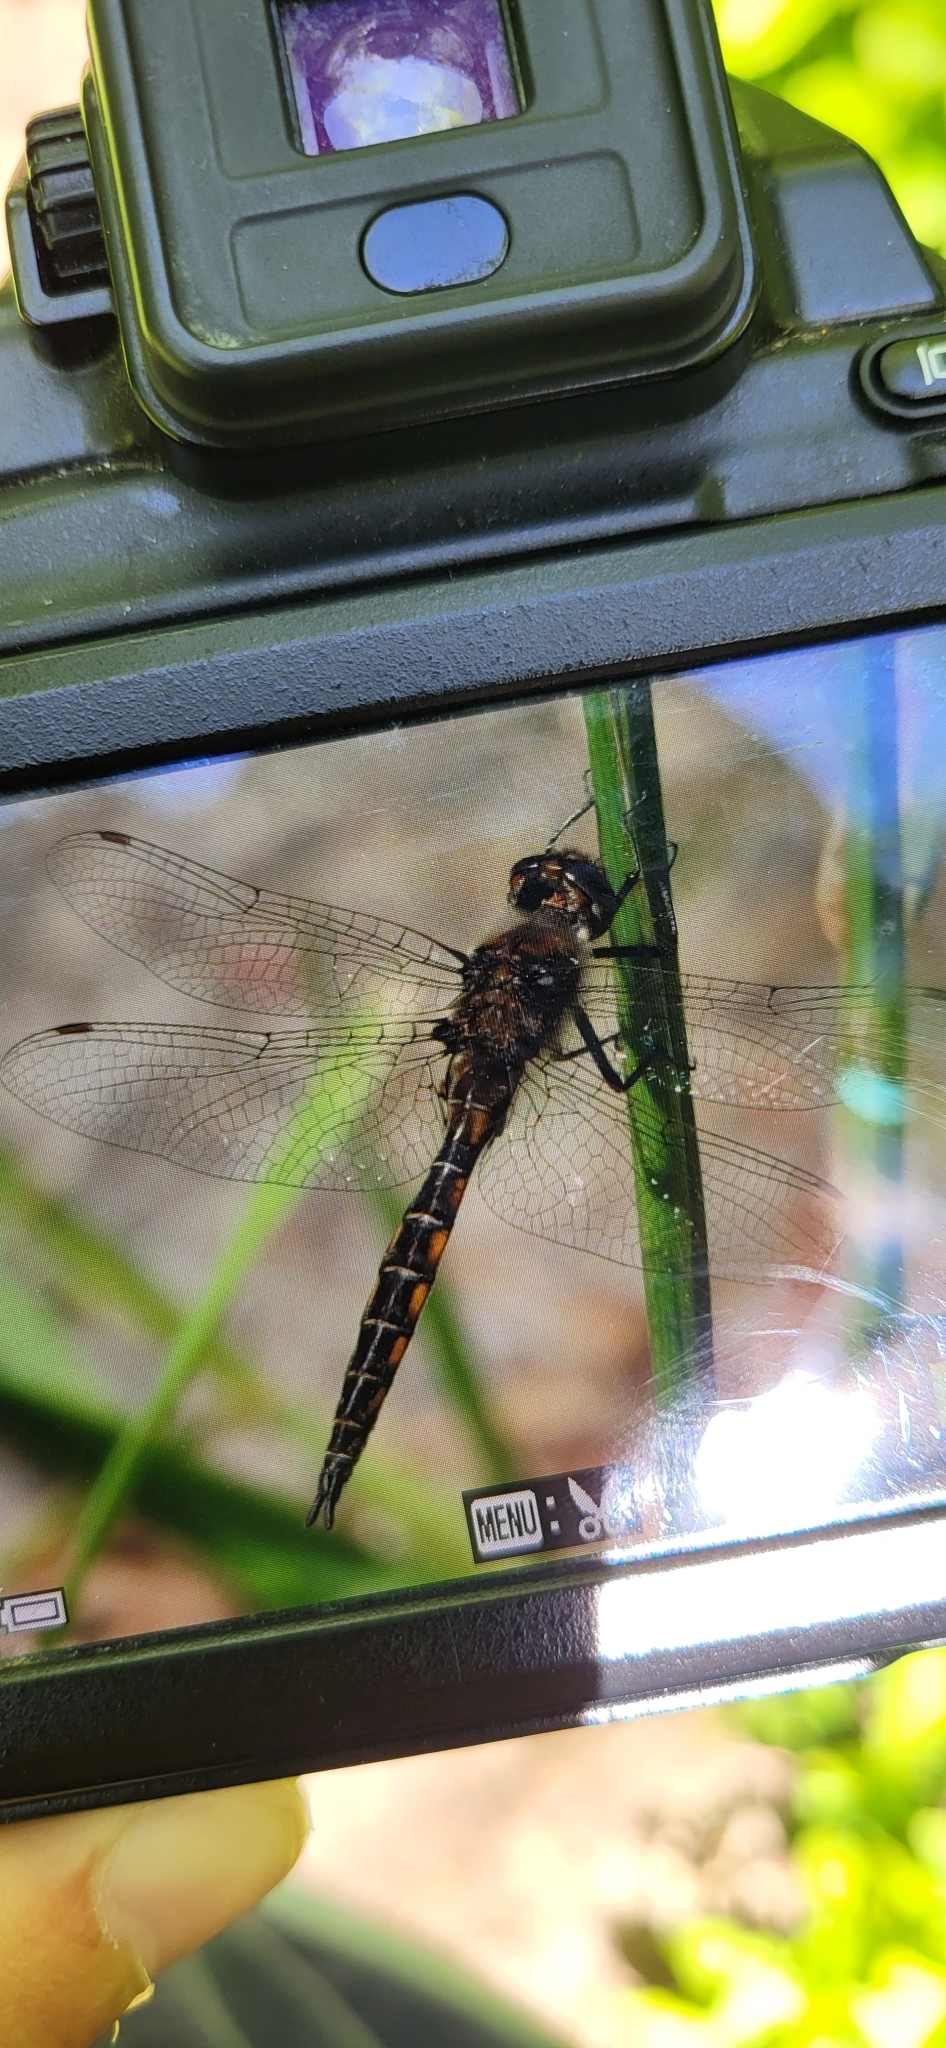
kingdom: Animalia
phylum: Arthropoda
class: Insecta
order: Odonata
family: Corduliidae
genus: Epitheca
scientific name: Epitheca cynosura
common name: Common baskettail
